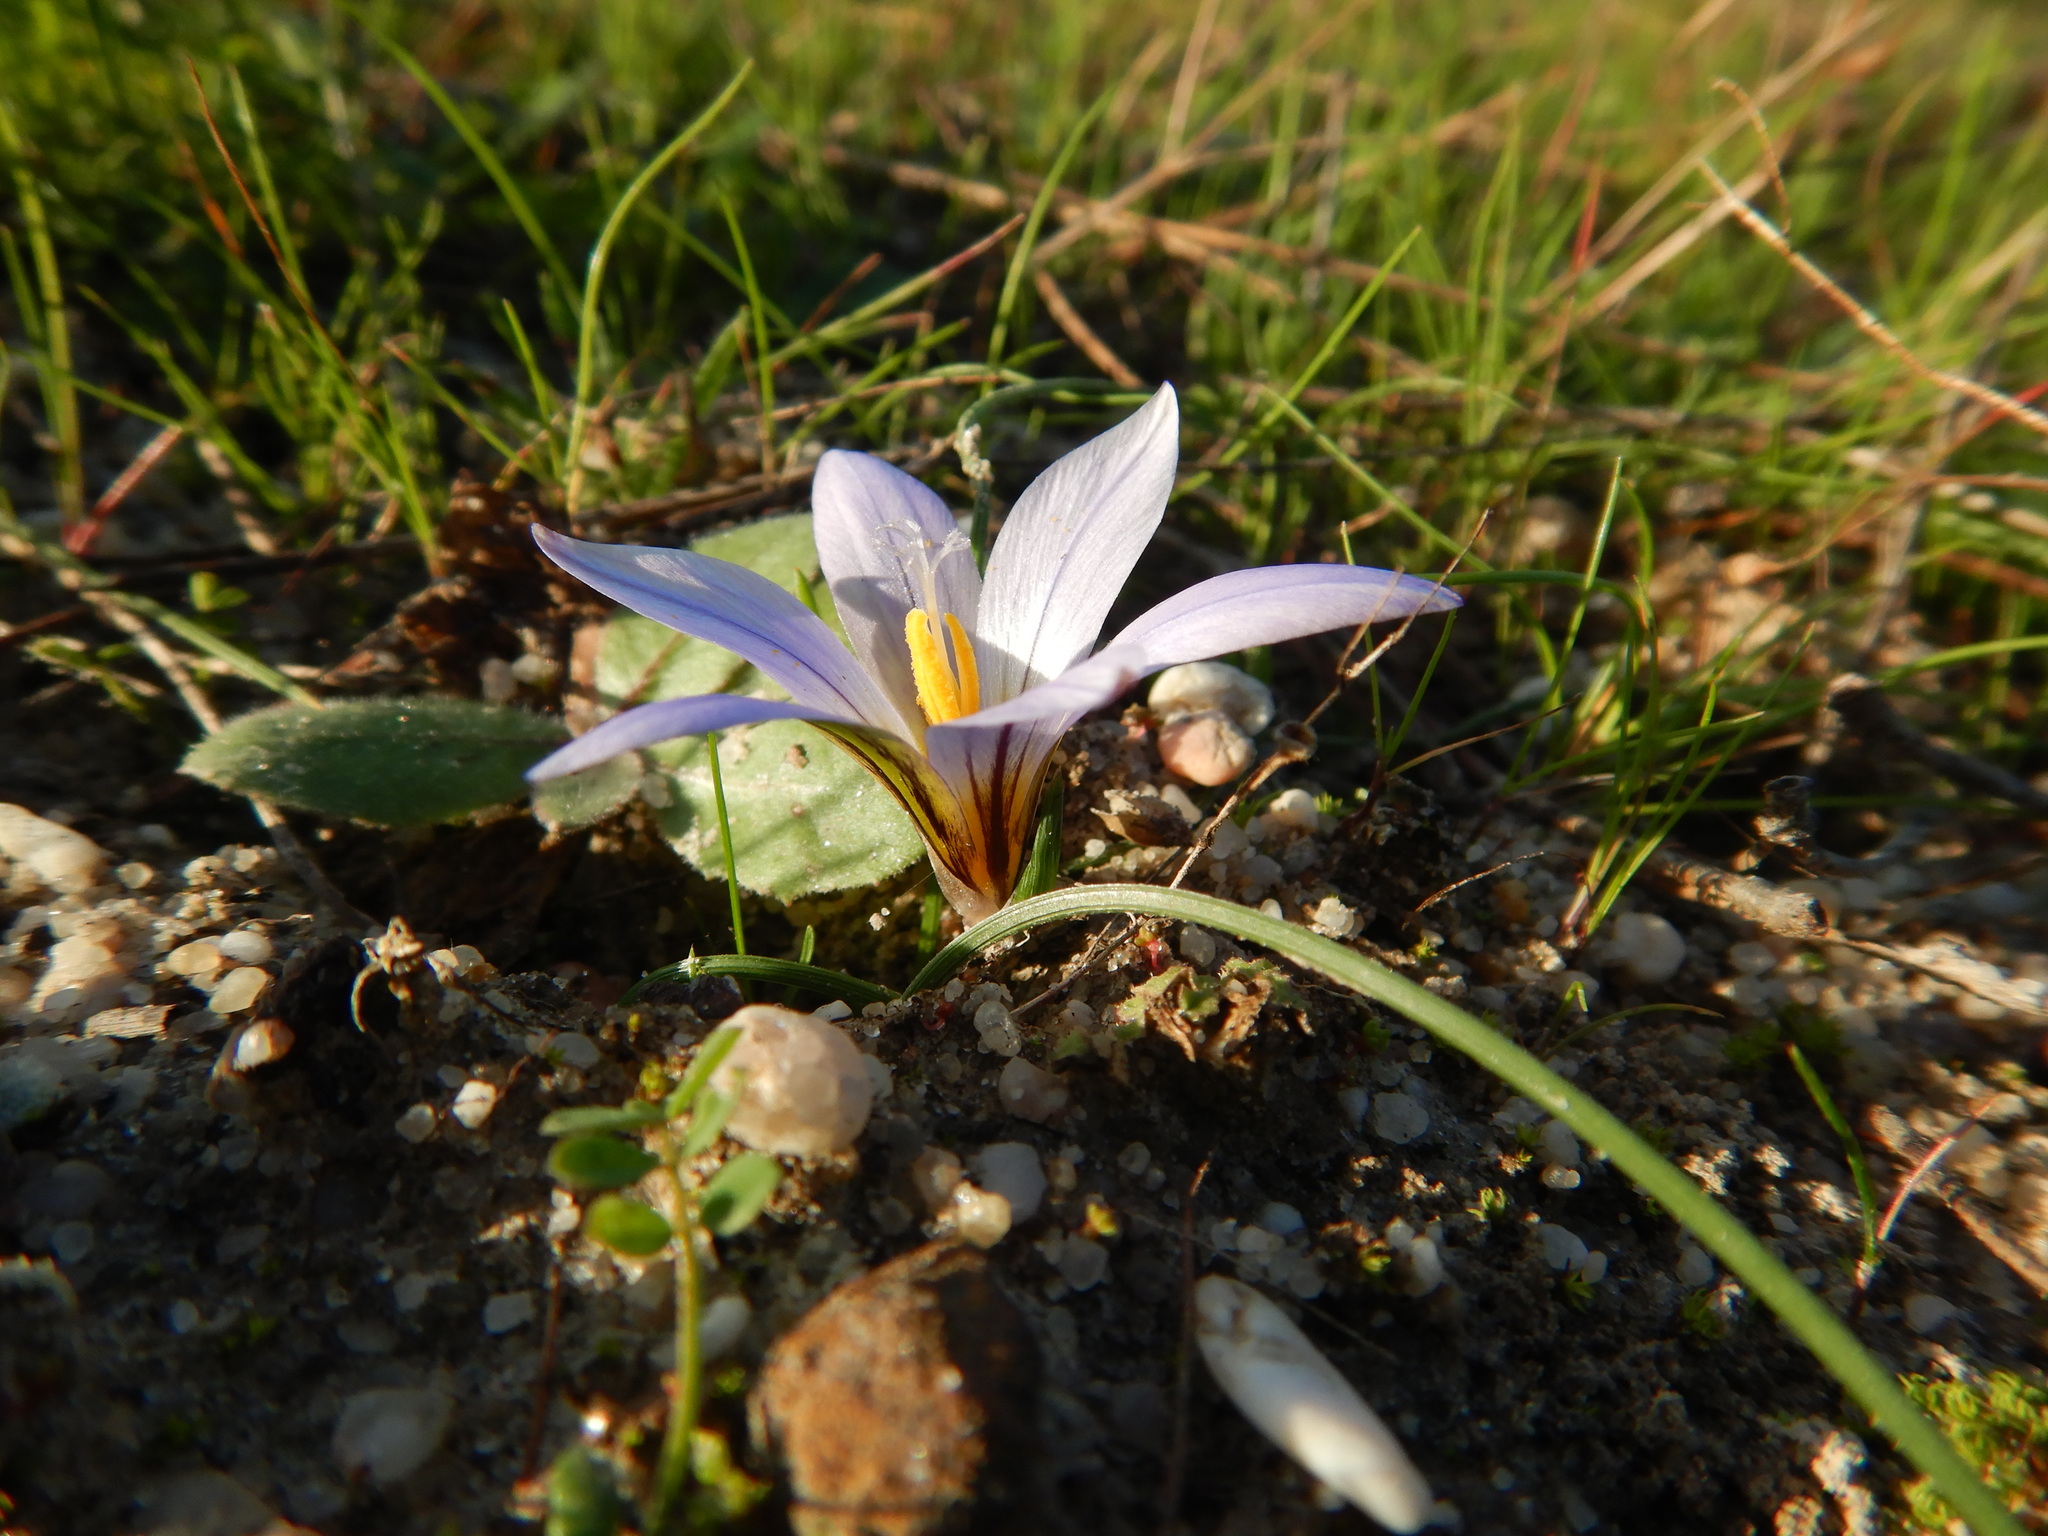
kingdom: Plantae
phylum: Tracheophyta
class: Liliopsida
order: Asparagales
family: Iridaceae
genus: Romulea
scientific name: Romulea bulbocodium
